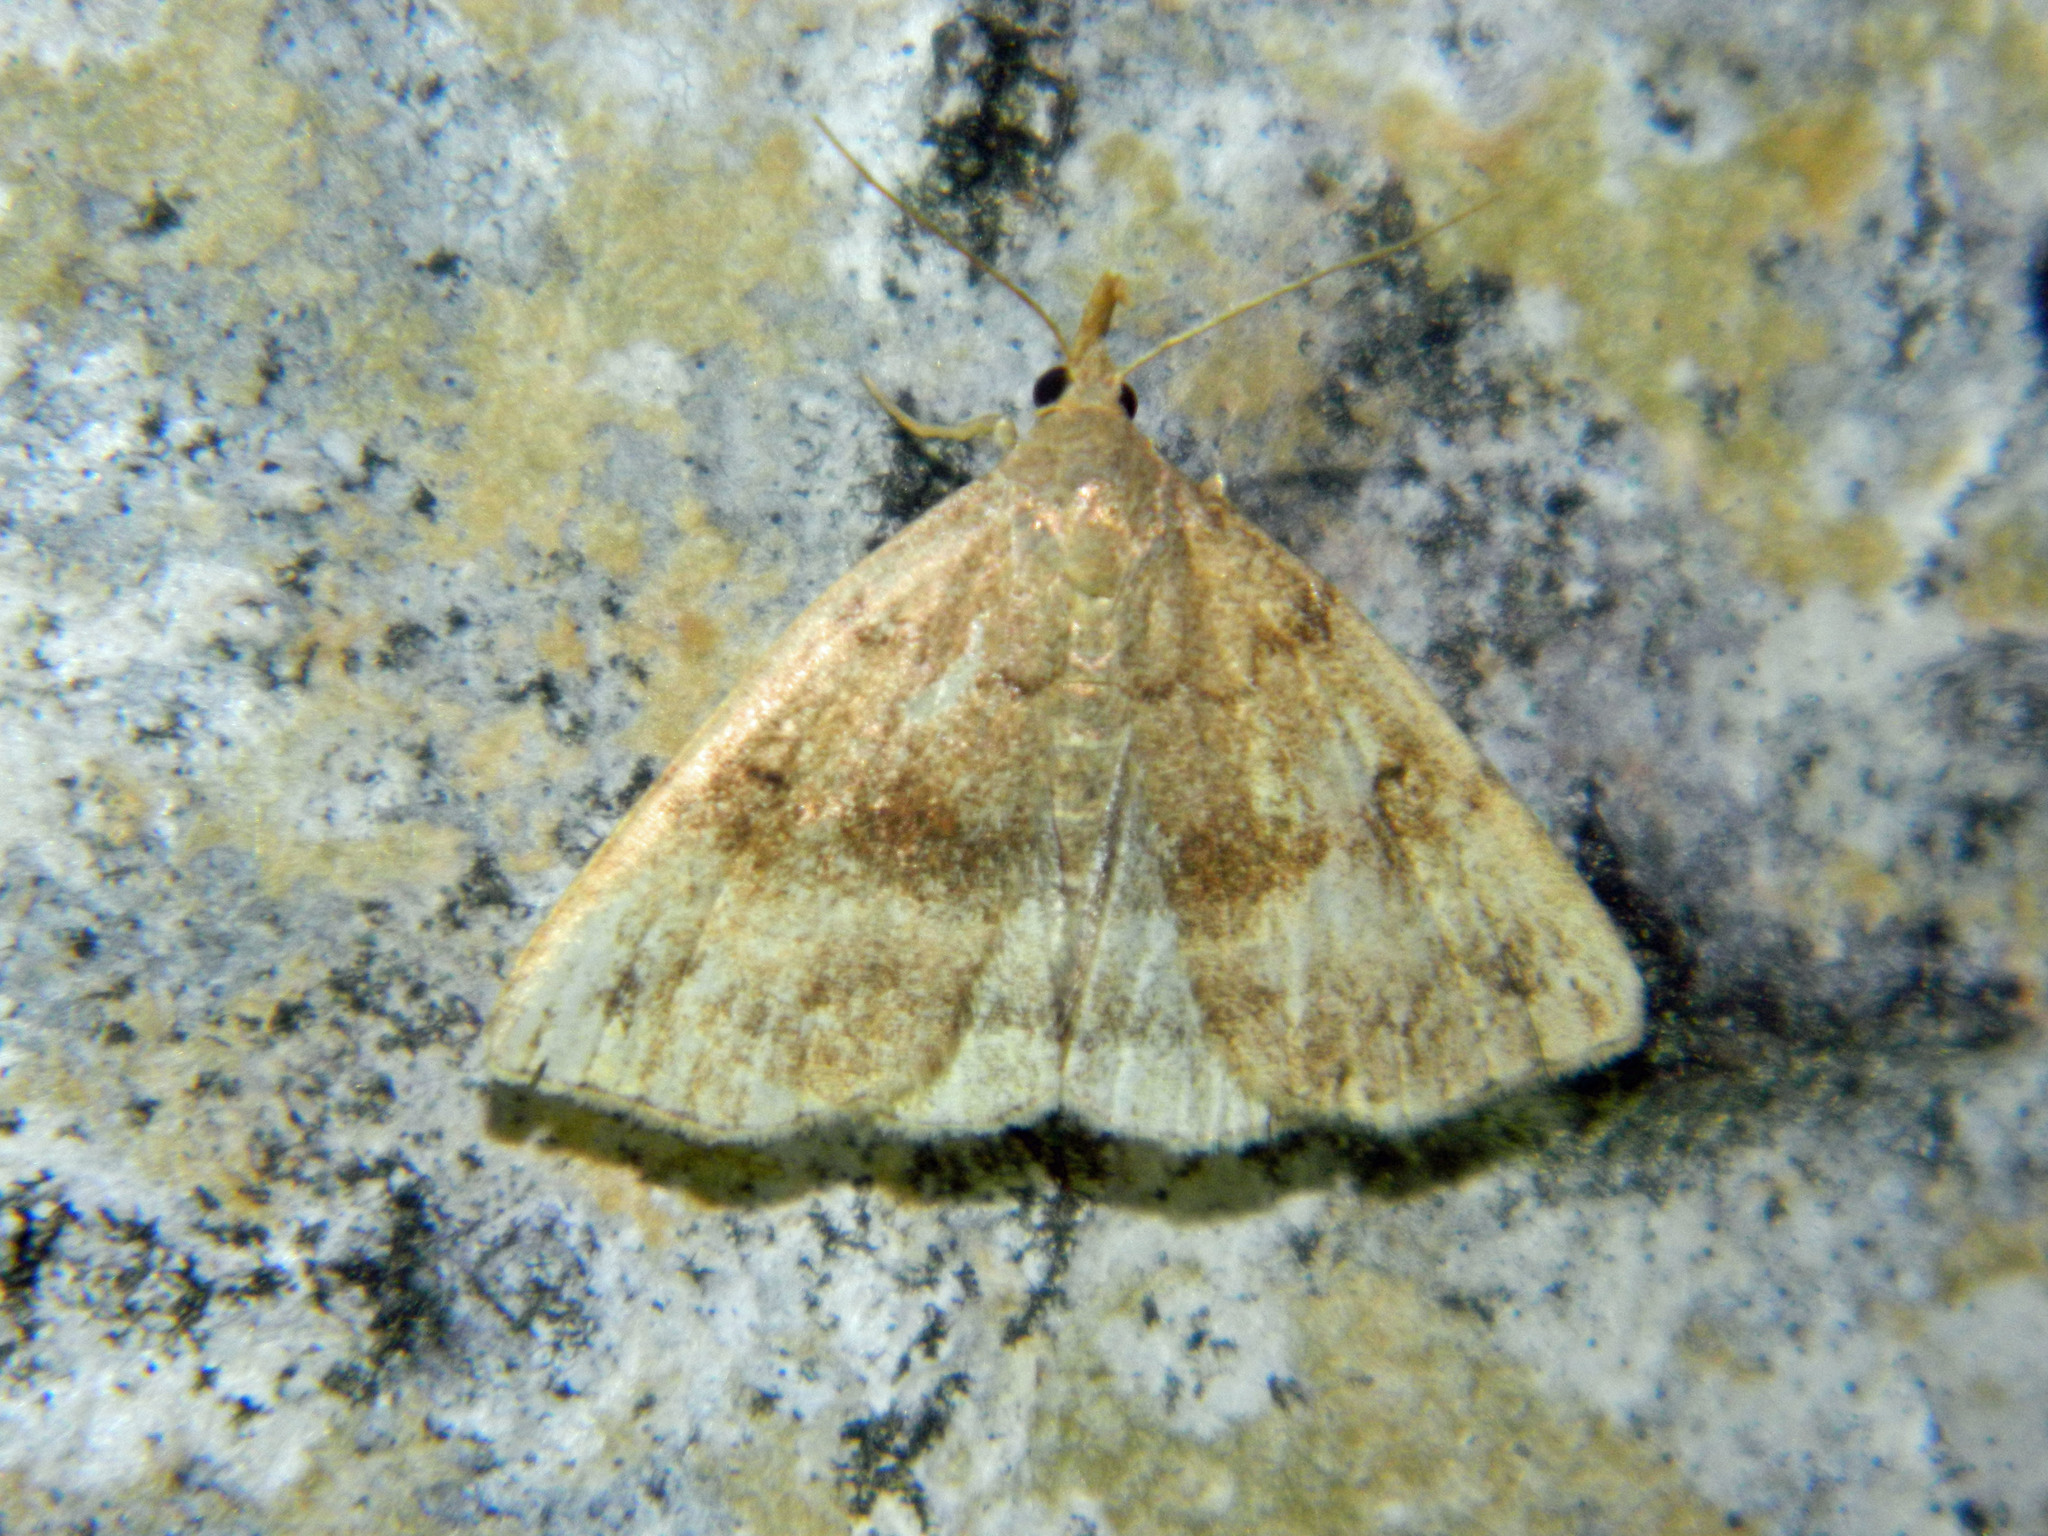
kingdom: Animalia
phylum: Arthropoda
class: Insecta
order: Lepidoptera
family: Erebidae
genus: Phalaenostola
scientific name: Phalaenostola eumelusalis
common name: Dark phalaenostola moth
